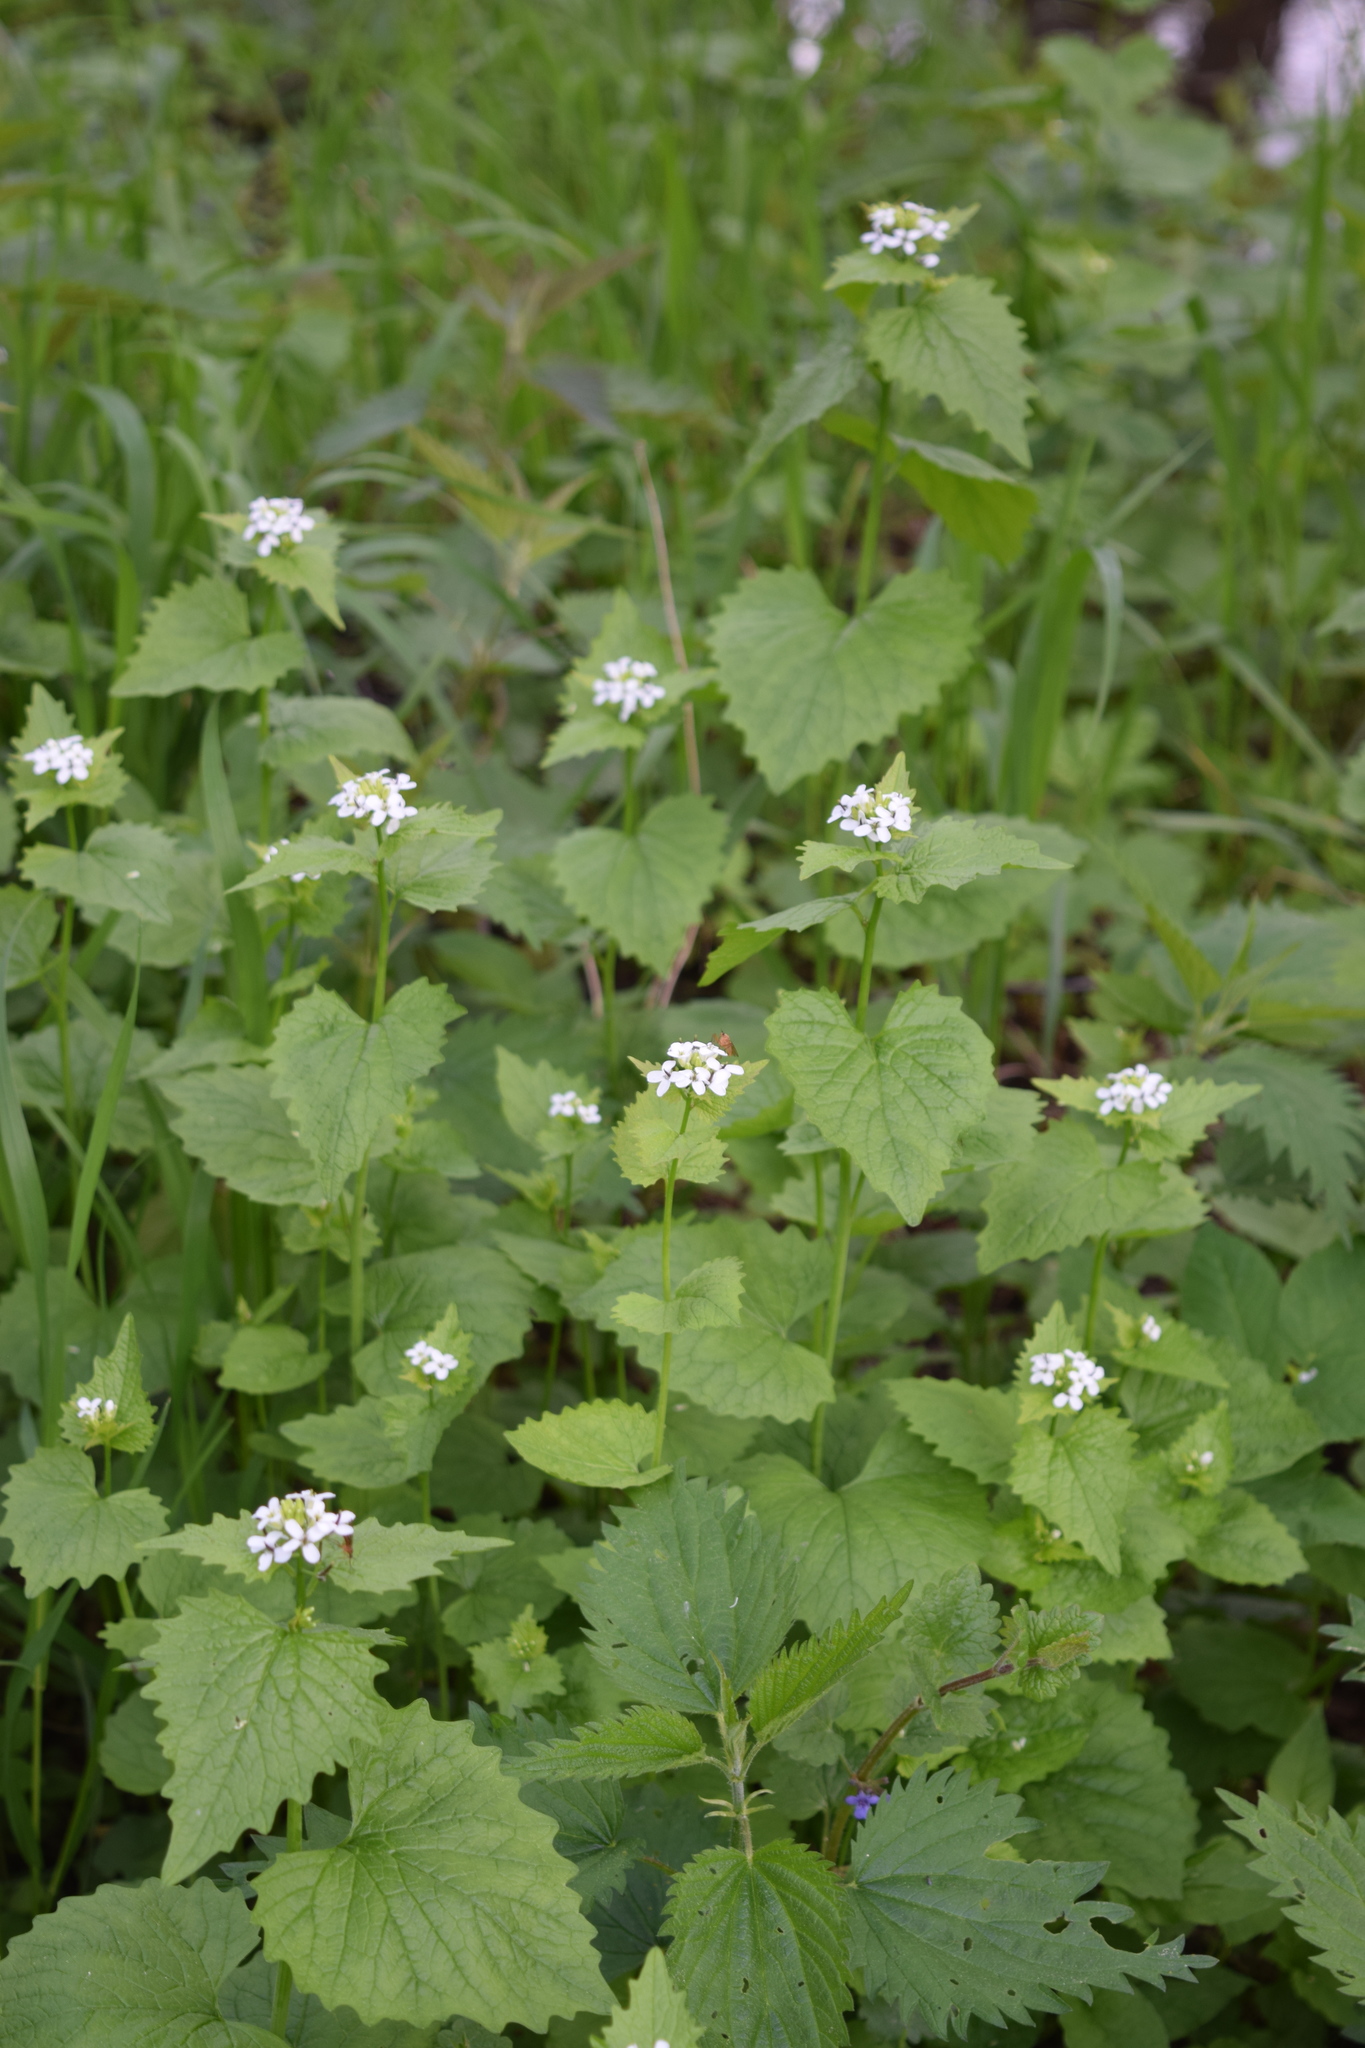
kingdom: Plantae
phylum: Tracheophyta
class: Magnoliopsida
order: Brassicales
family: Brassicaceae
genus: Alliaria
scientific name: Alliaria petiolata
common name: Garlic mustard
